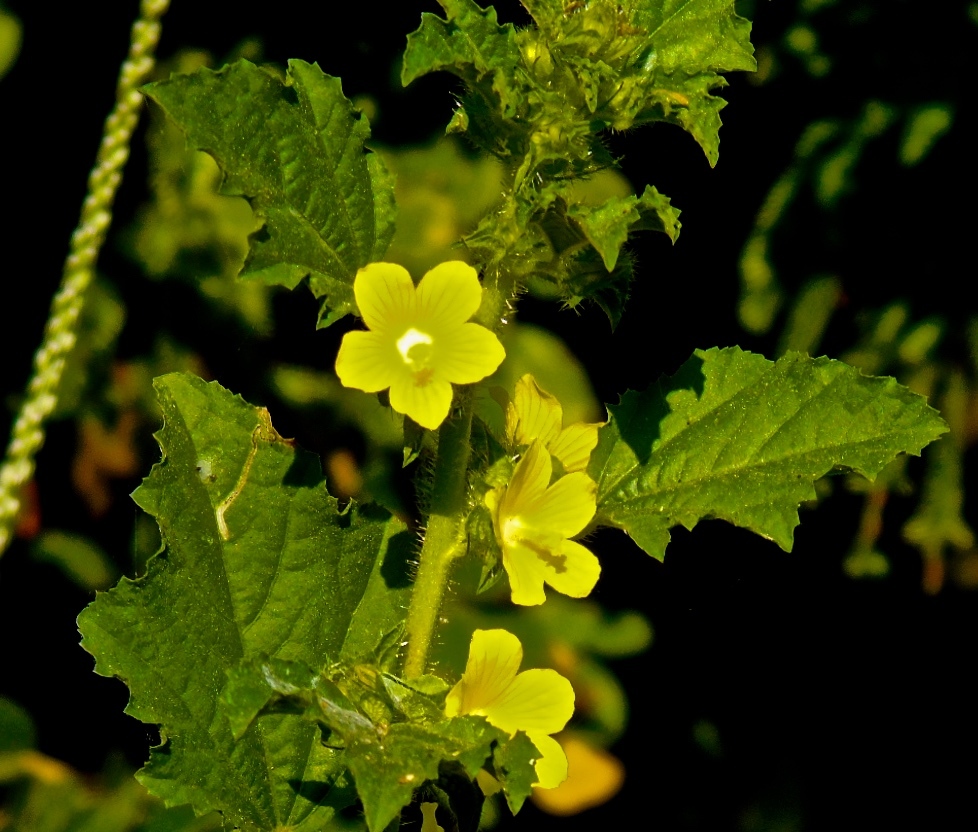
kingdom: Plantae
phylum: Tracheophyta
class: Magnoliopsida
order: Malvales
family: Malvaceae
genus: Malachra
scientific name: Malachra alceifolia
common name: Yellow leafbract
